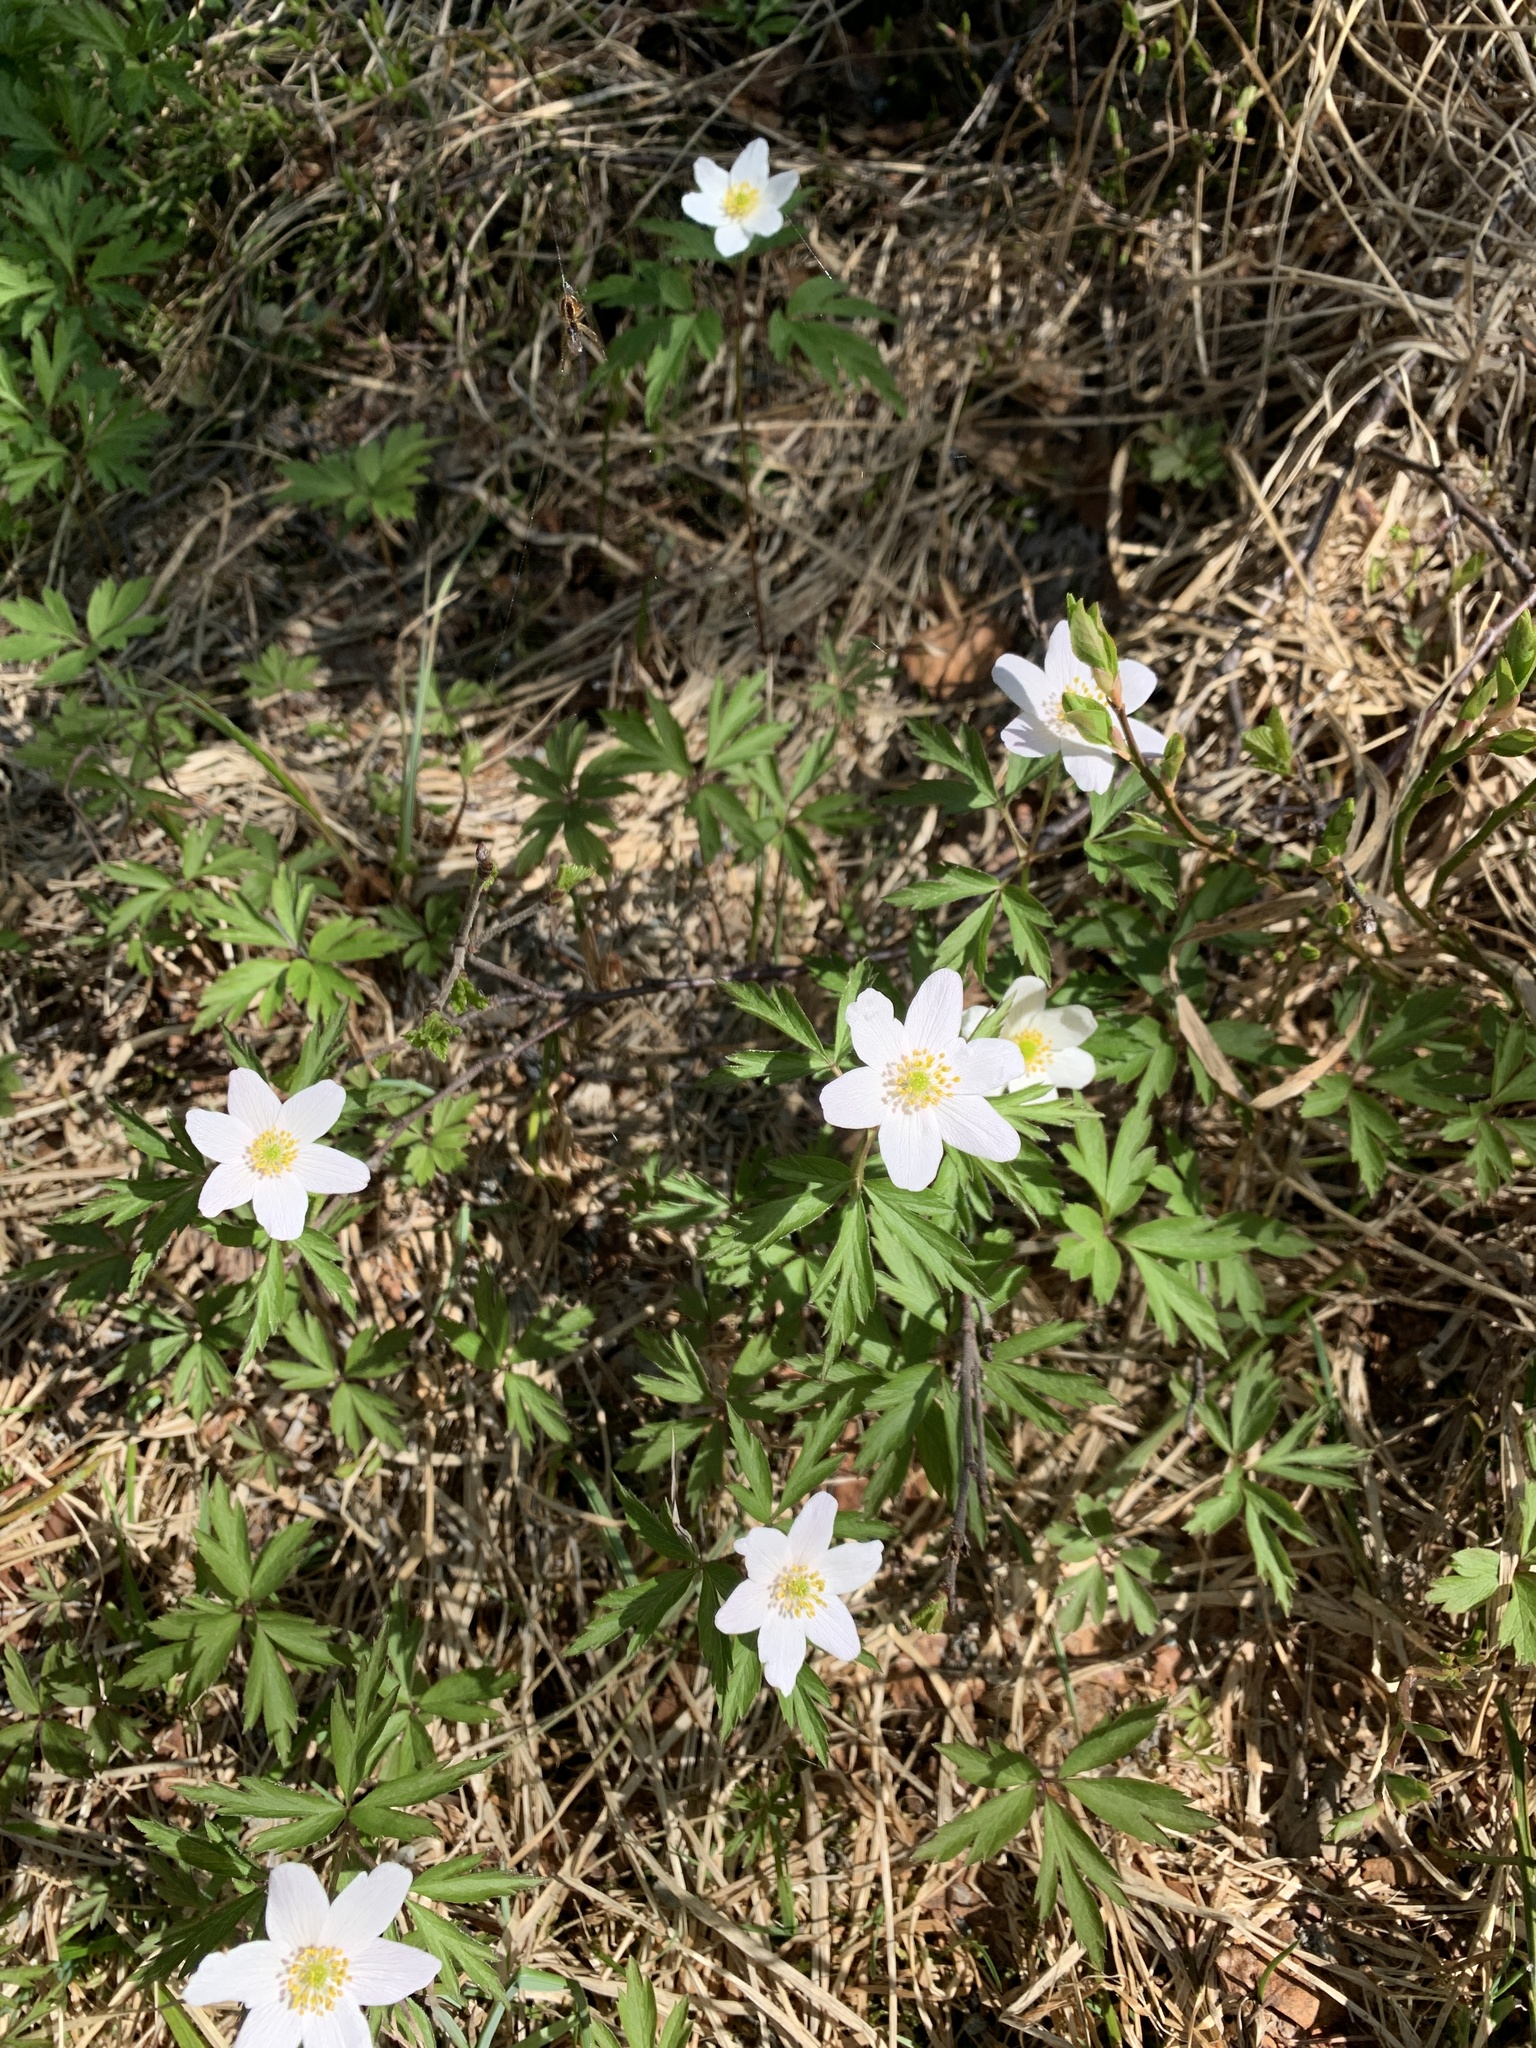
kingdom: Plantae
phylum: Tracheophyta
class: Magnoliopsida
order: Ranunculales
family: Ranunculaceae
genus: Anemone
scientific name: Anemone nemorosa
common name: Wood anemone
